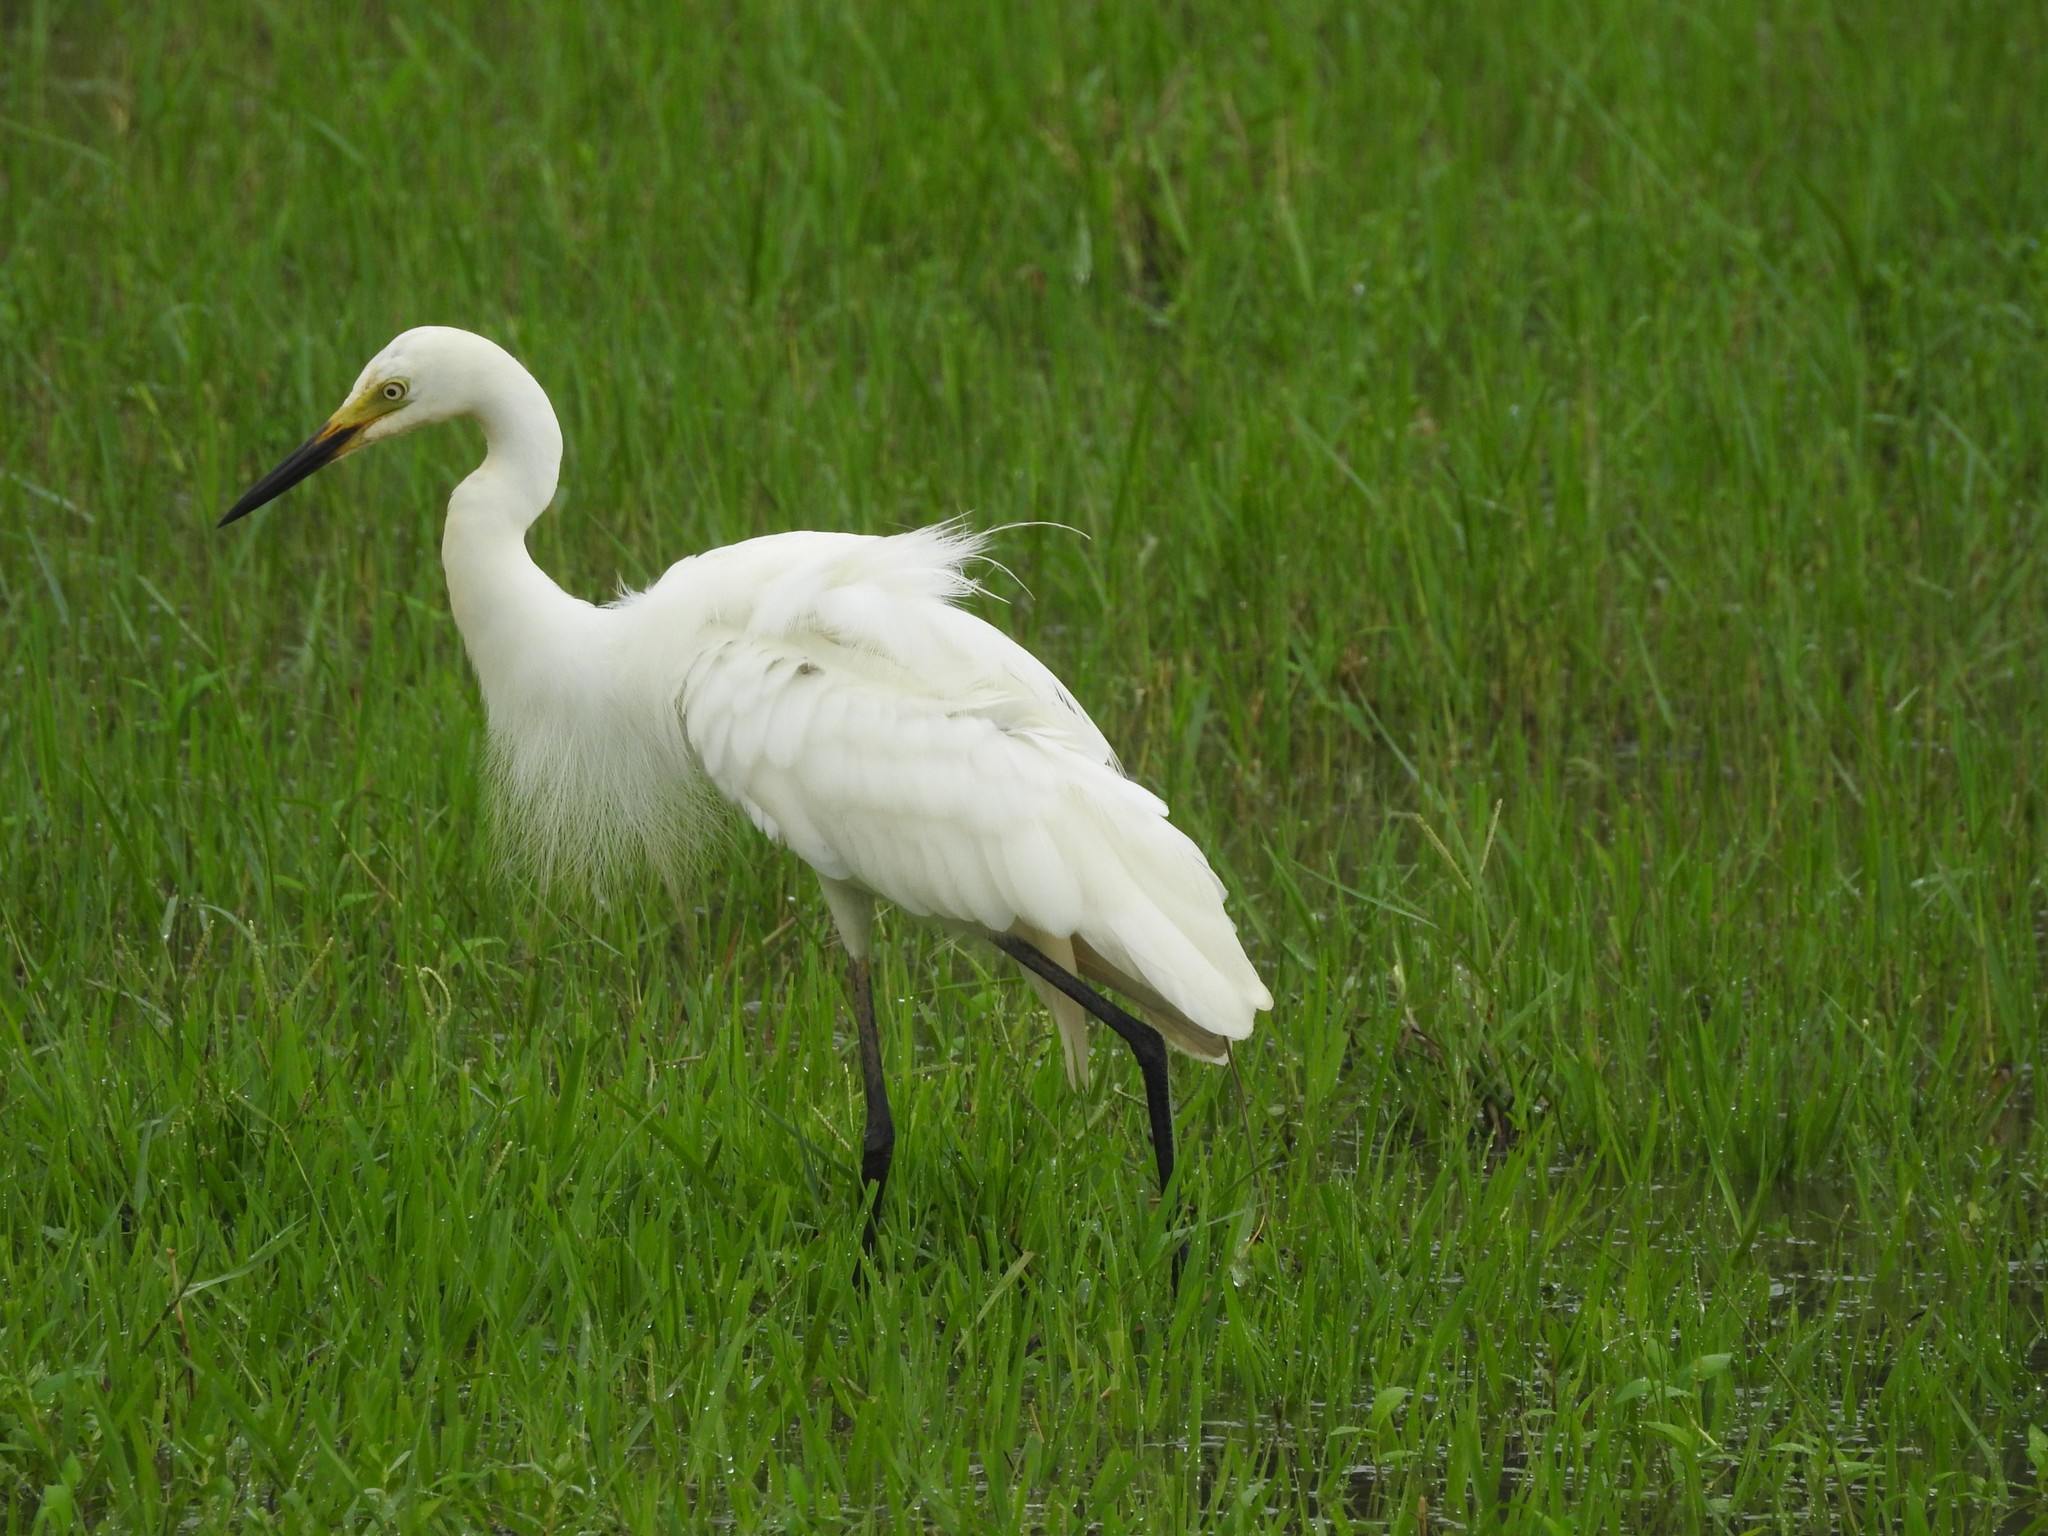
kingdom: Animalia
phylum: Chordata
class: Aves
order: Pelecaniformes
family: Ardeidae
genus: Egretta
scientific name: Egretta intermedia
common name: Intermediate egret
